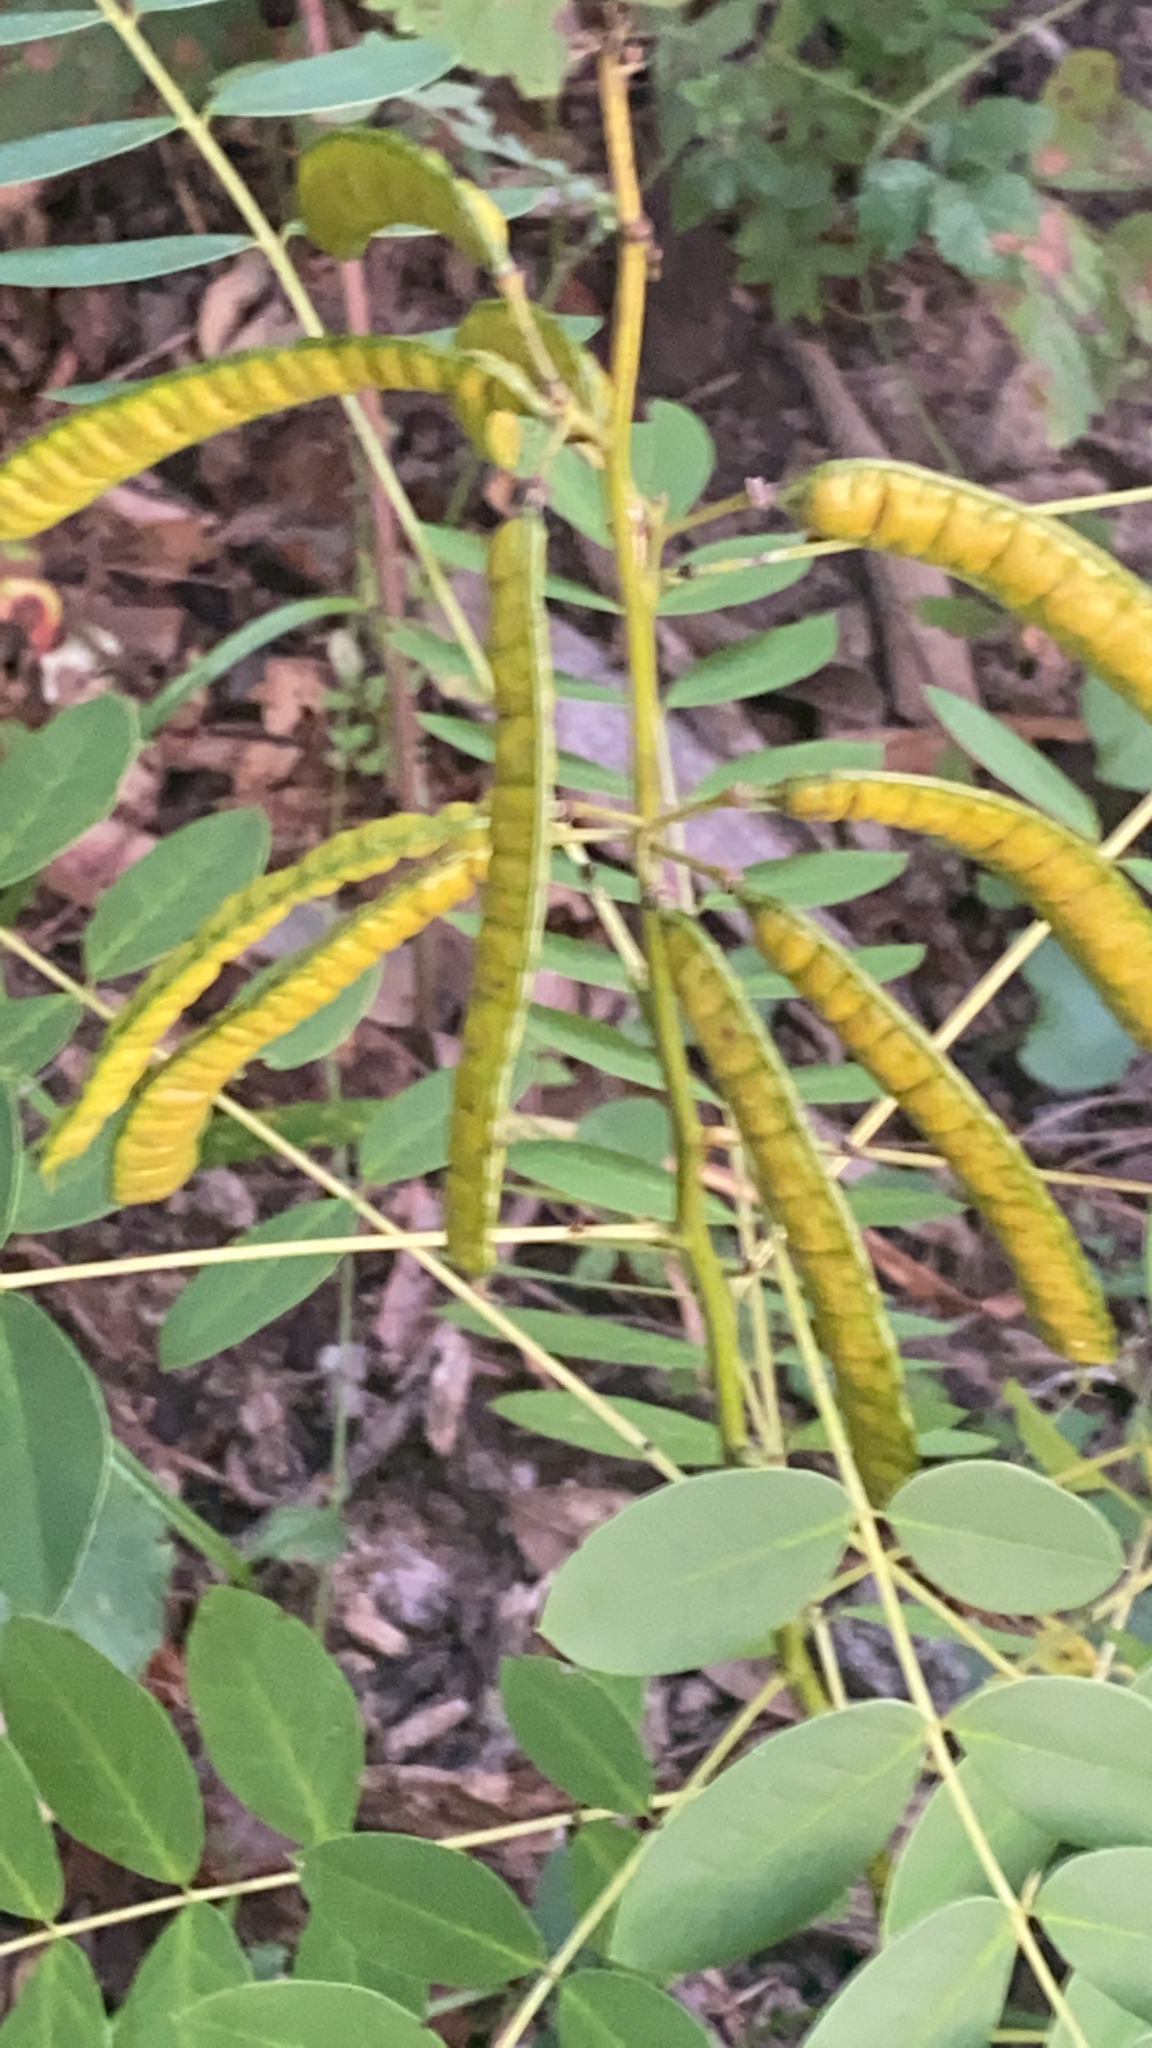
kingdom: Plantae
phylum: Tracheophyta
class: Magnoliopsida
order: Fabales
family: Fabaceae
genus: Senna
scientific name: Senna marilandica
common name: American senna
